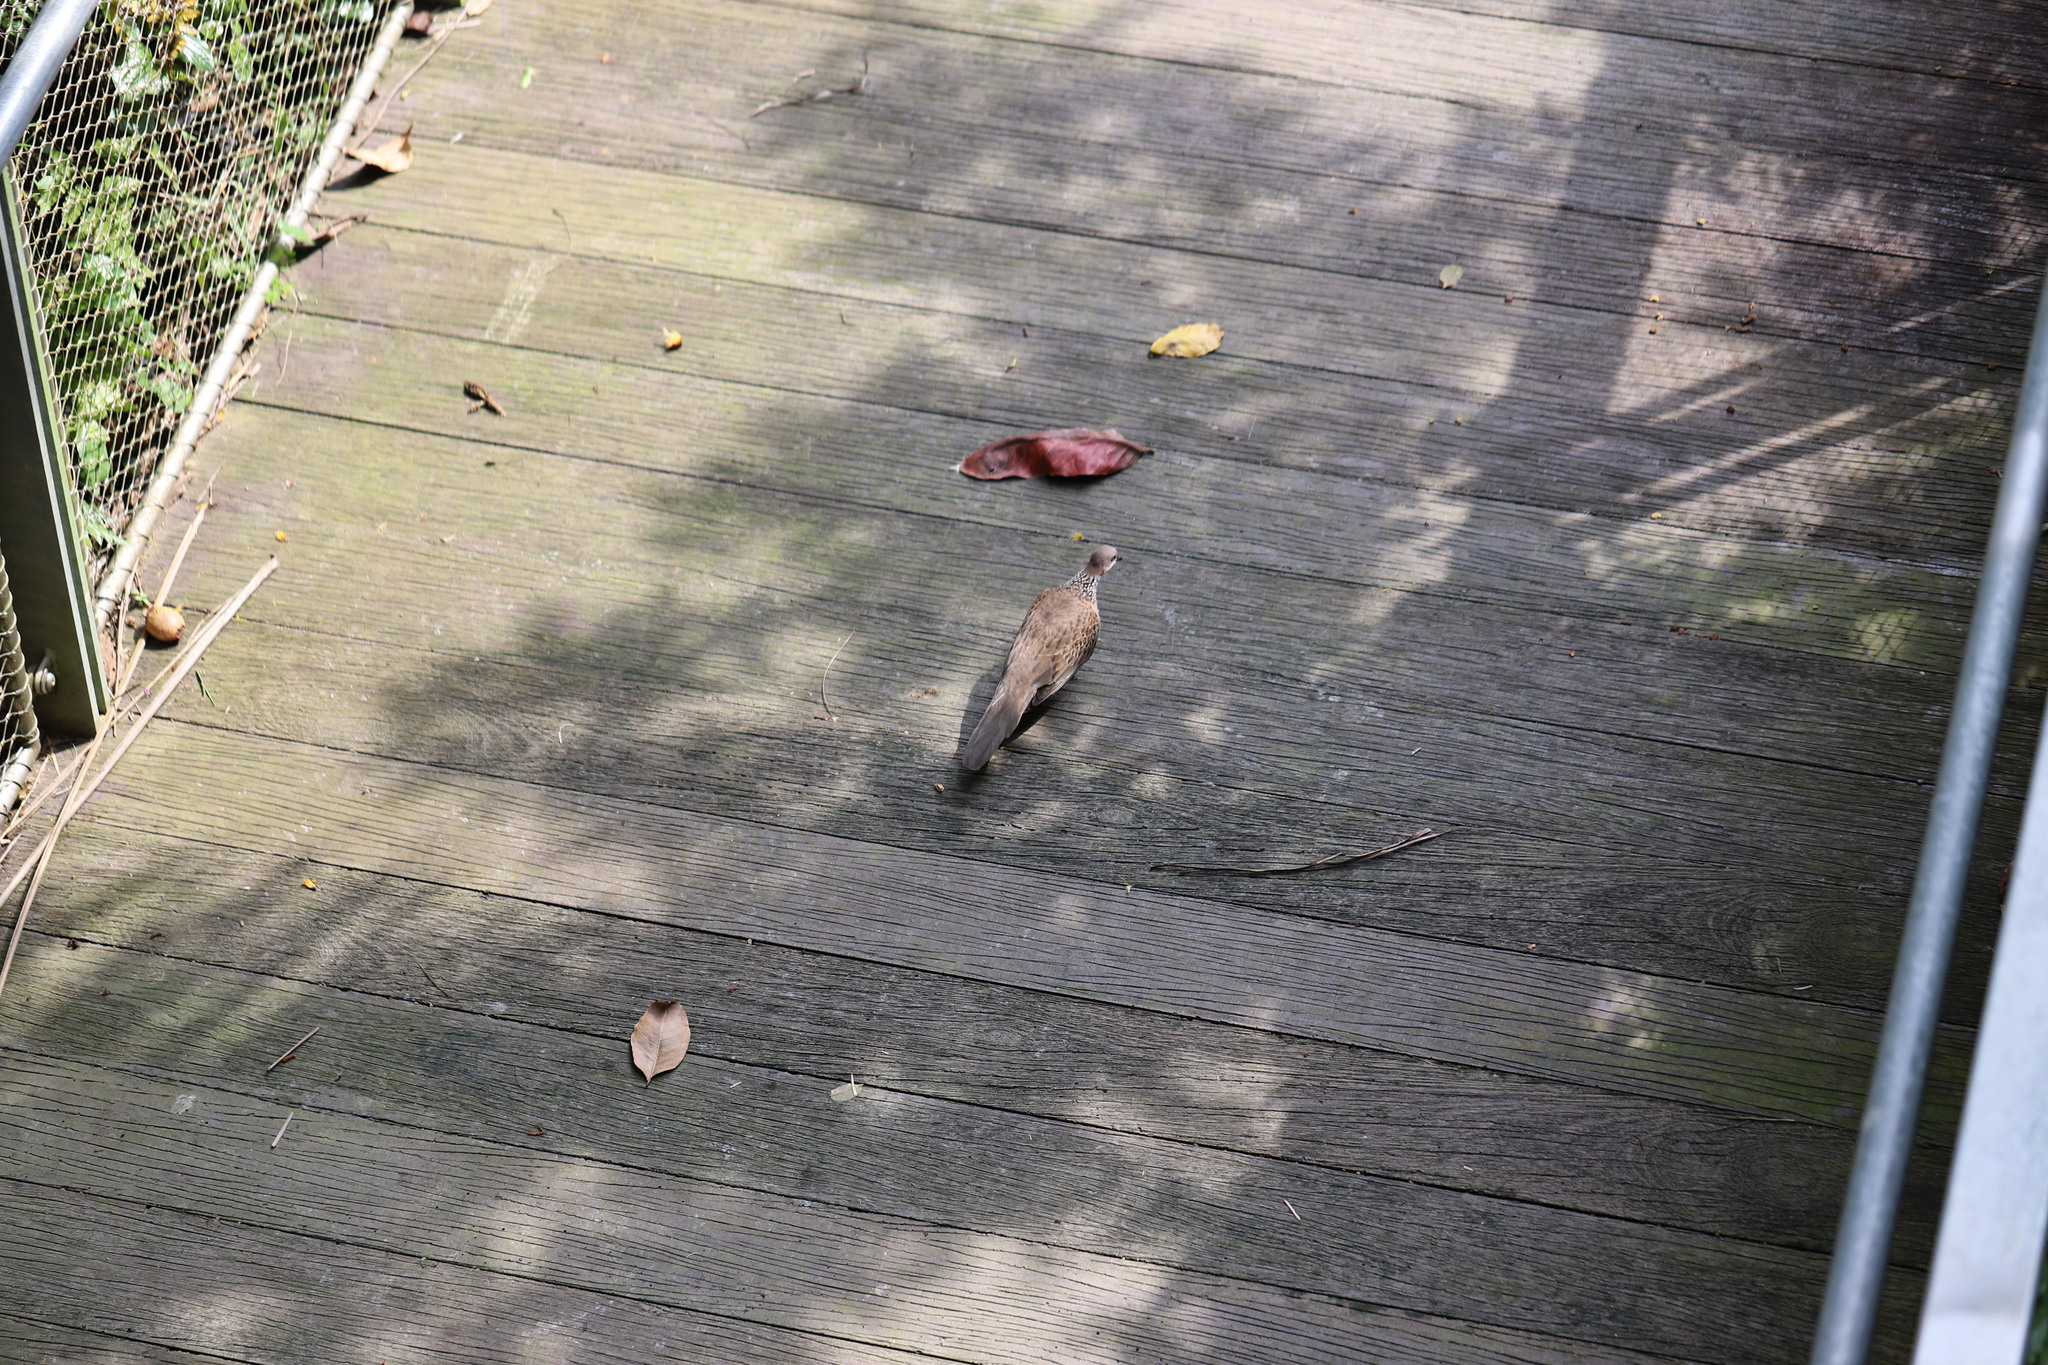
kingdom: Animalia
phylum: Chordata
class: Aves
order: Columbiformes
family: Columbidae
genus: Spilopelia
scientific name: Spilopelia chinensis
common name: Spotted dove
